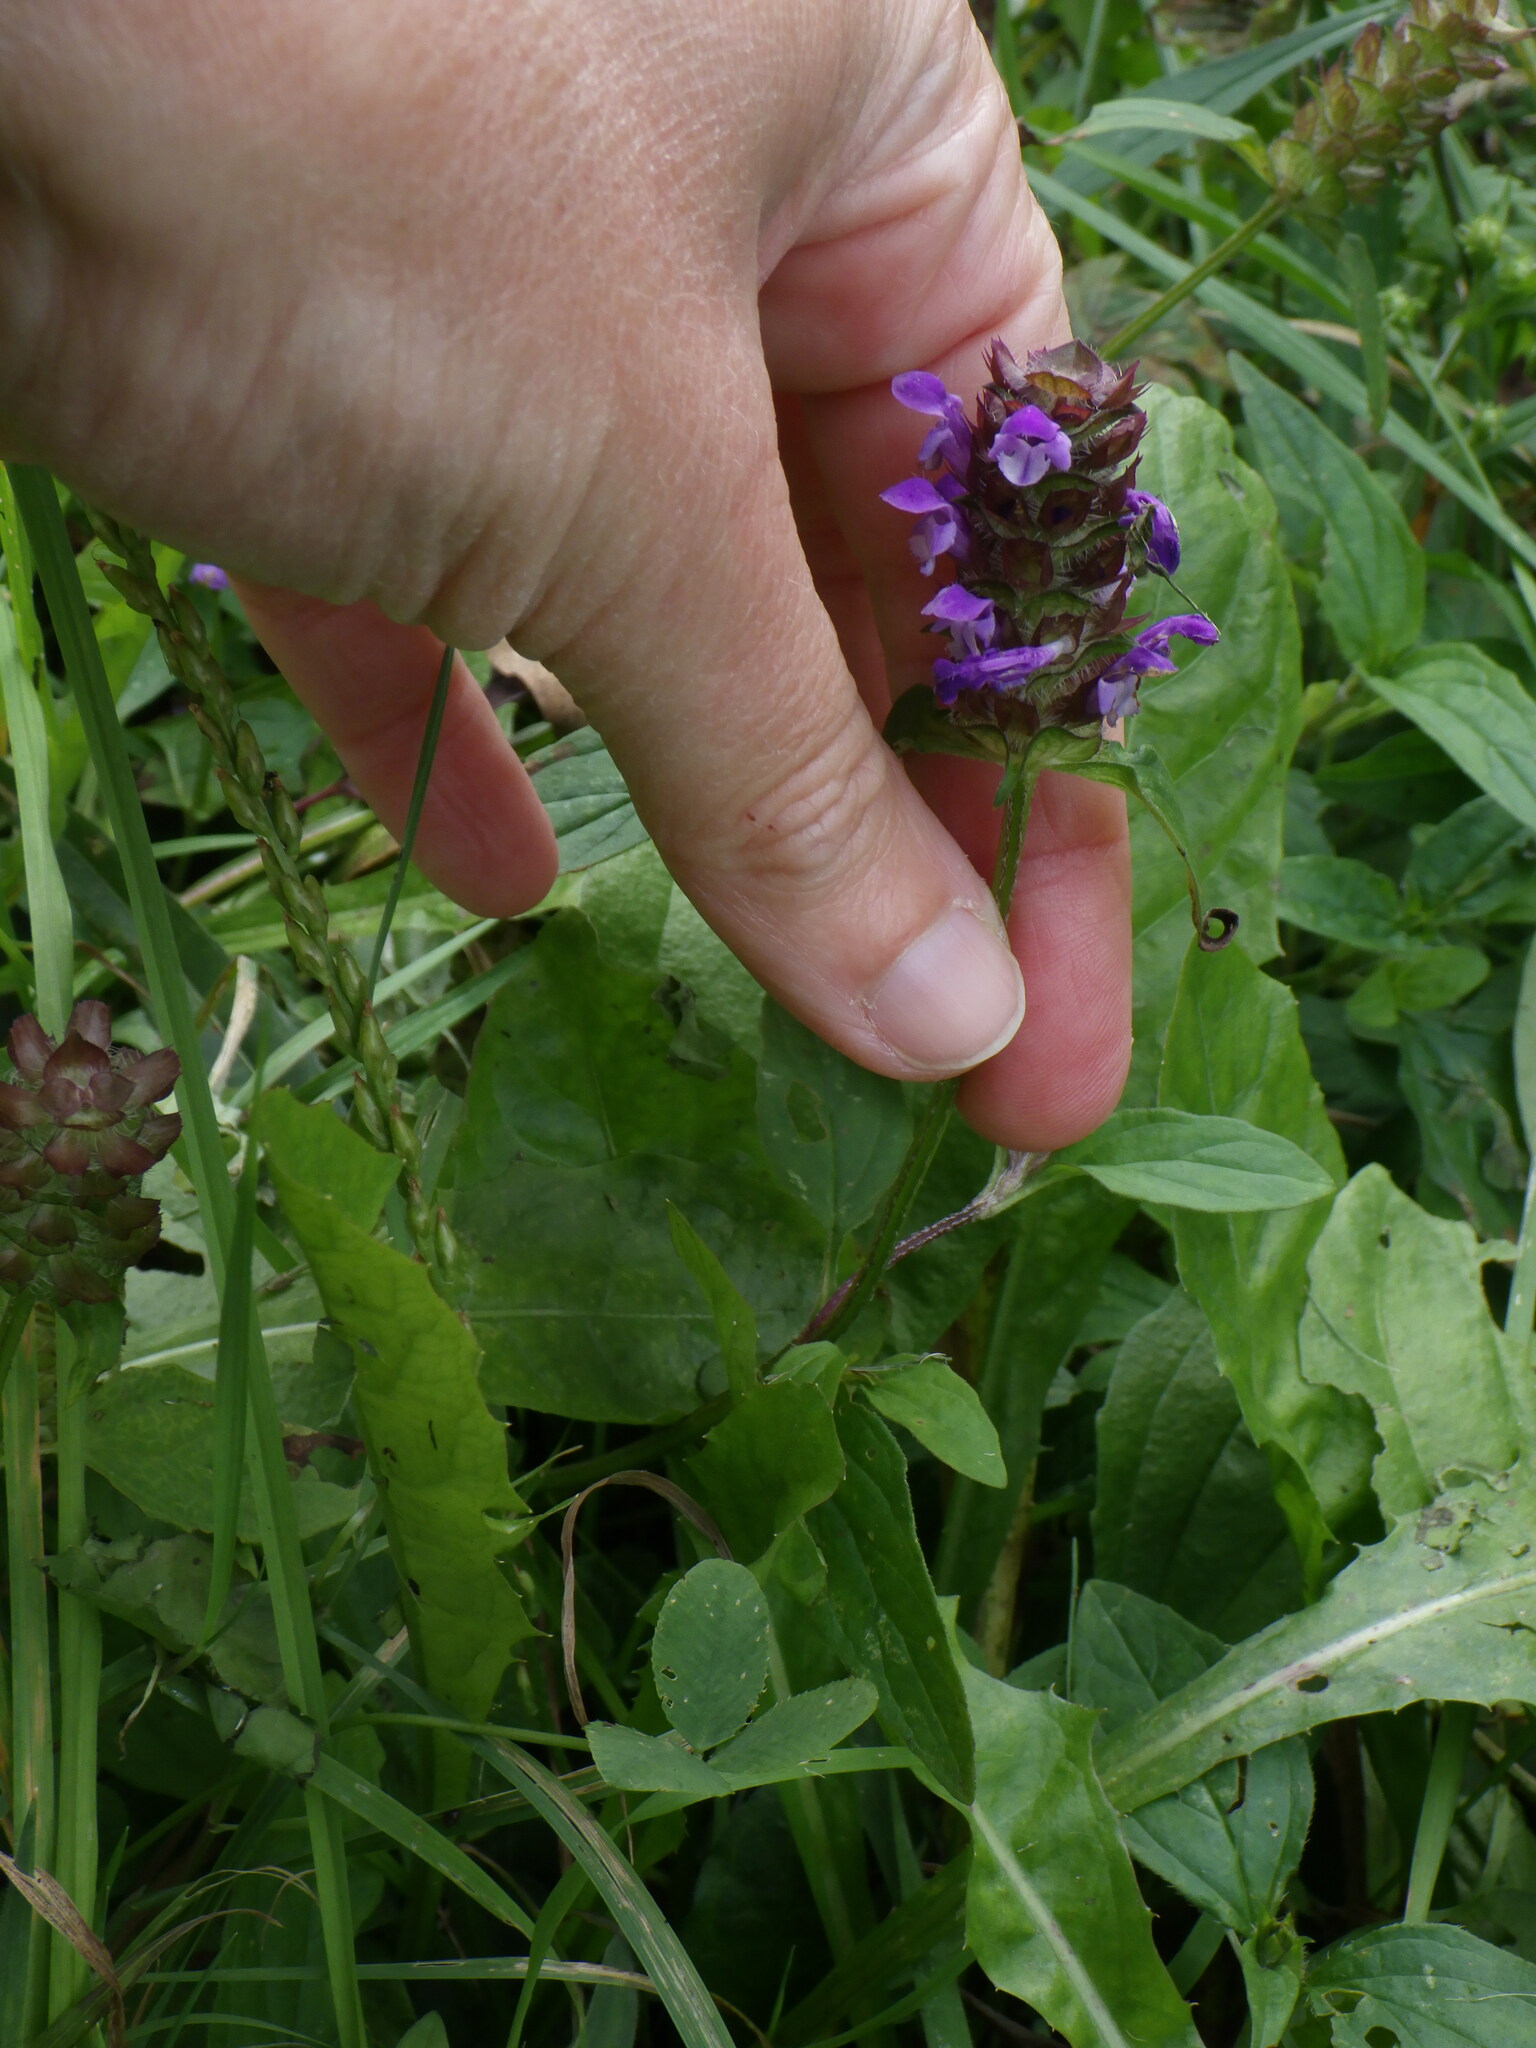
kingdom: Plantae
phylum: Tracheophyta
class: Magnoliopsida
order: Lamiales
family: Lamiaceae
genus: Prunella
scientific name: Prunella vulgaris
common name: Heal-all
